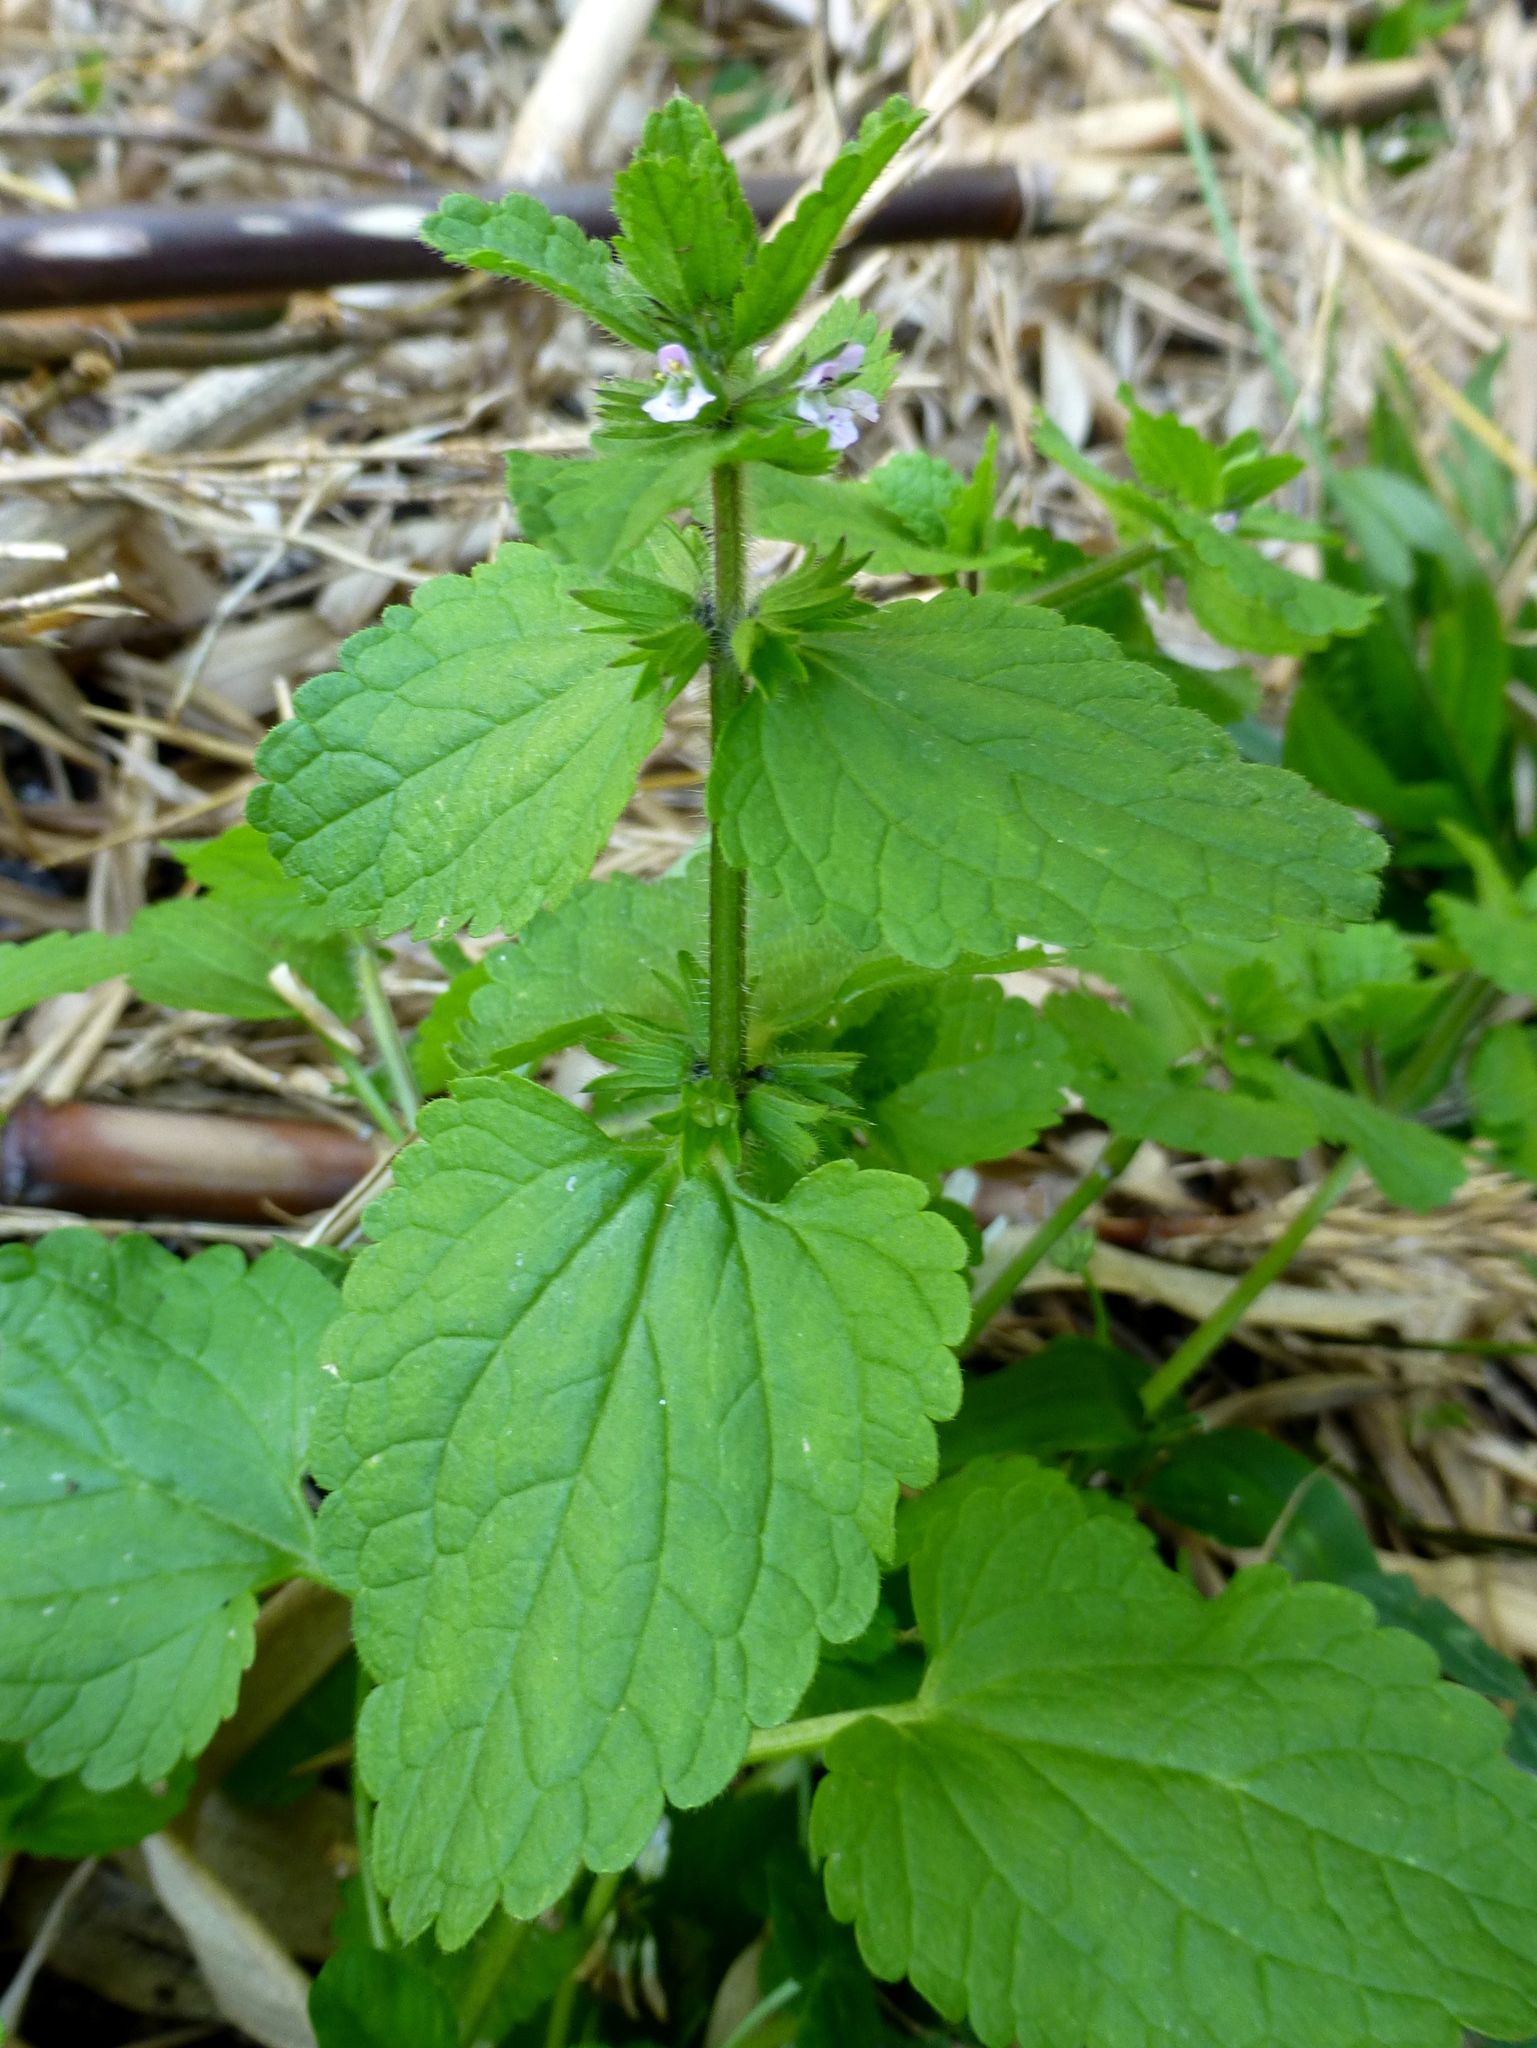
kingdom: Plantae
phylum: Tracheophyta
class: Magnoliopsida
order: Lamiales
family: Lamiaceae
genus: Stachys
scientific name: Stachys arvensis
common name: Field woundwort
